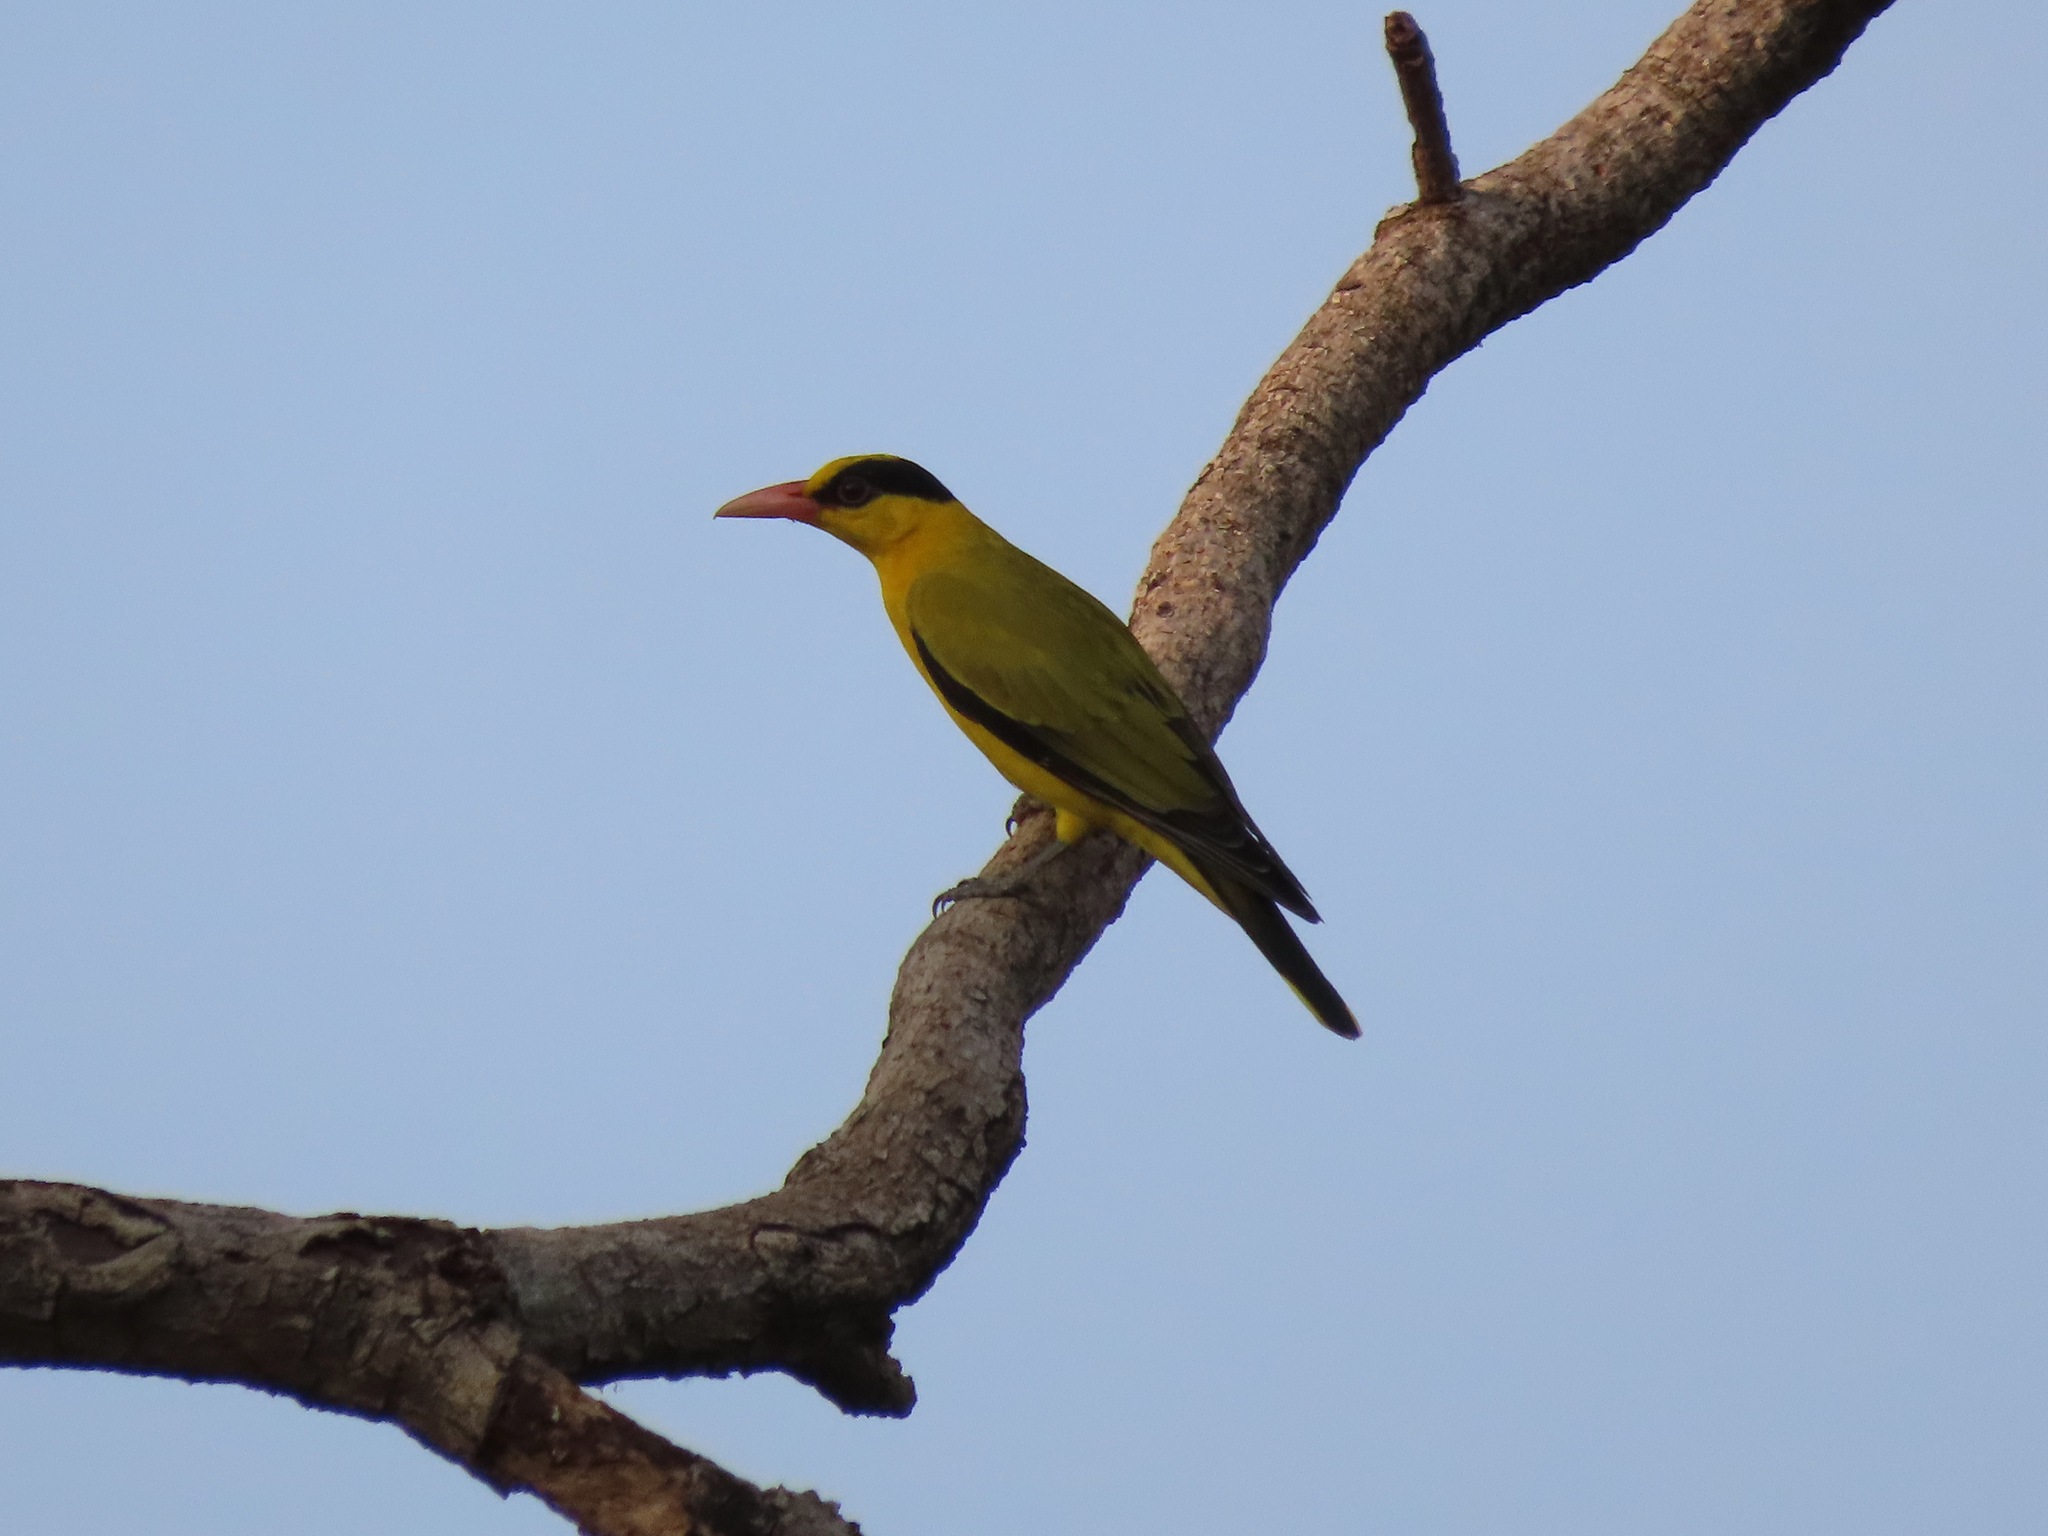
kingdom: Animalia
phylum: Chordata
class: Aves
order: Passeriformes
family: Oriolidae
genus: Oriolus
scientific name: Oriolus chinensis
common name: Black-naped oriole
